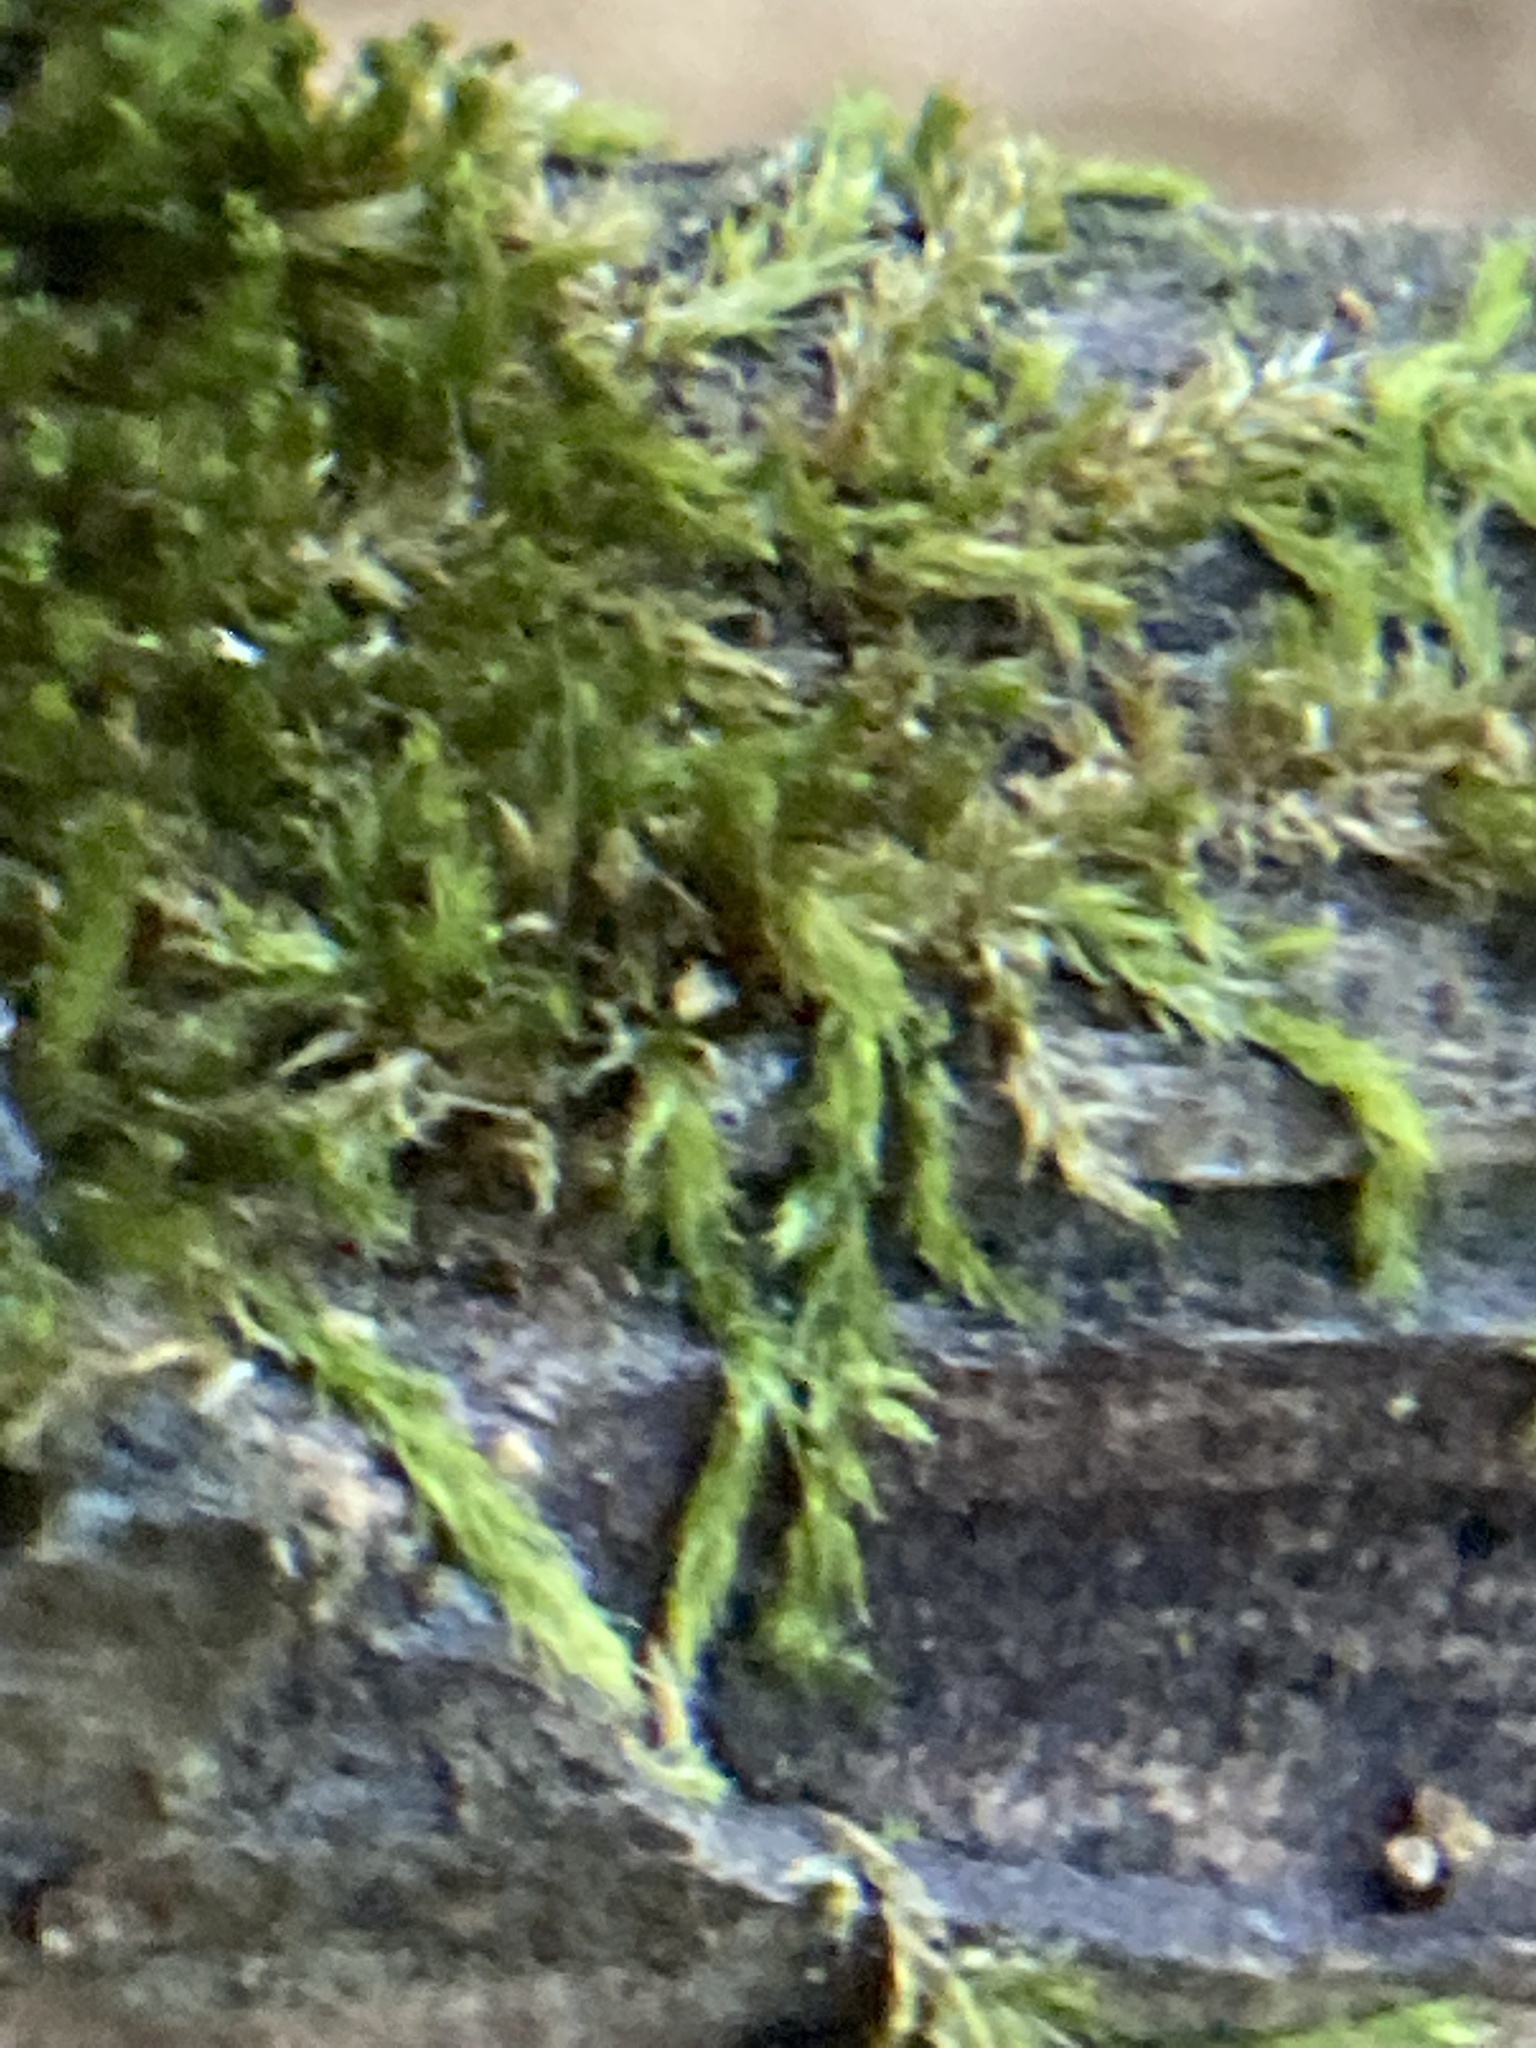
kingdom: Plantae
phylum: Bryophyta
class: Bryopsida
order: Hypnales
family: Callicladiaceae
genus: Callicladium
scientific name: Callicladium haldanianum
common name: Beautiful branch moss
